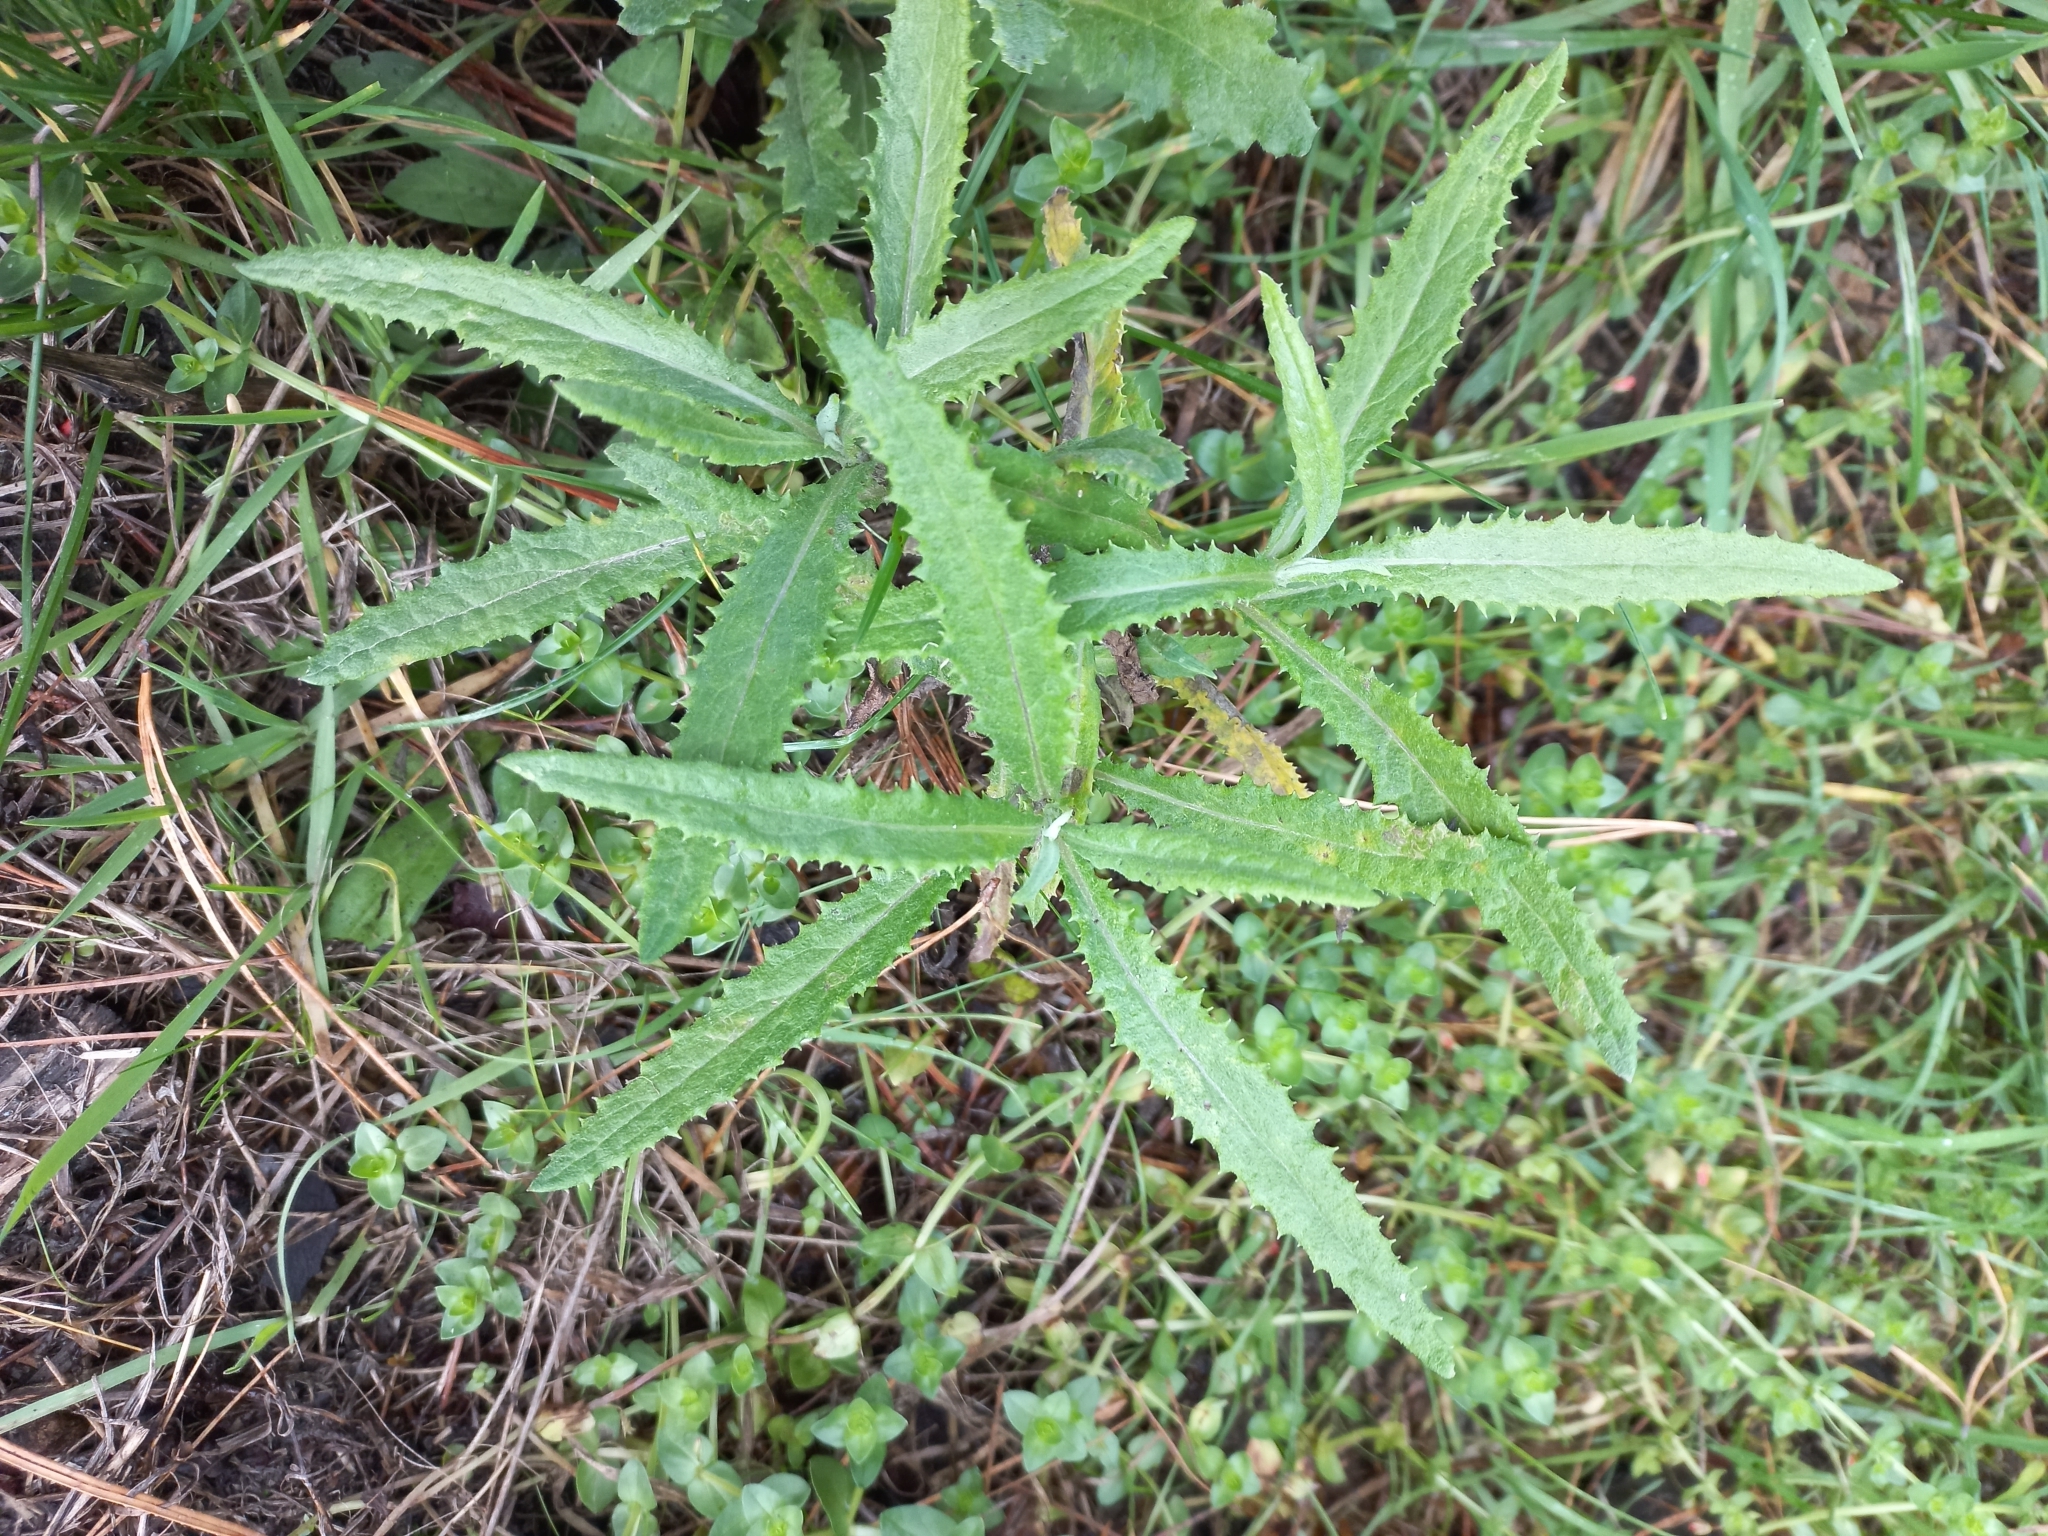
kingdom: Plantae
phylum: Tracheophyta
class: Magnoliopsida
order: Asterales
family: Asteraceae
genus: Senecio
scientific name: Senecio minimus
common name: Toothed fireweed
